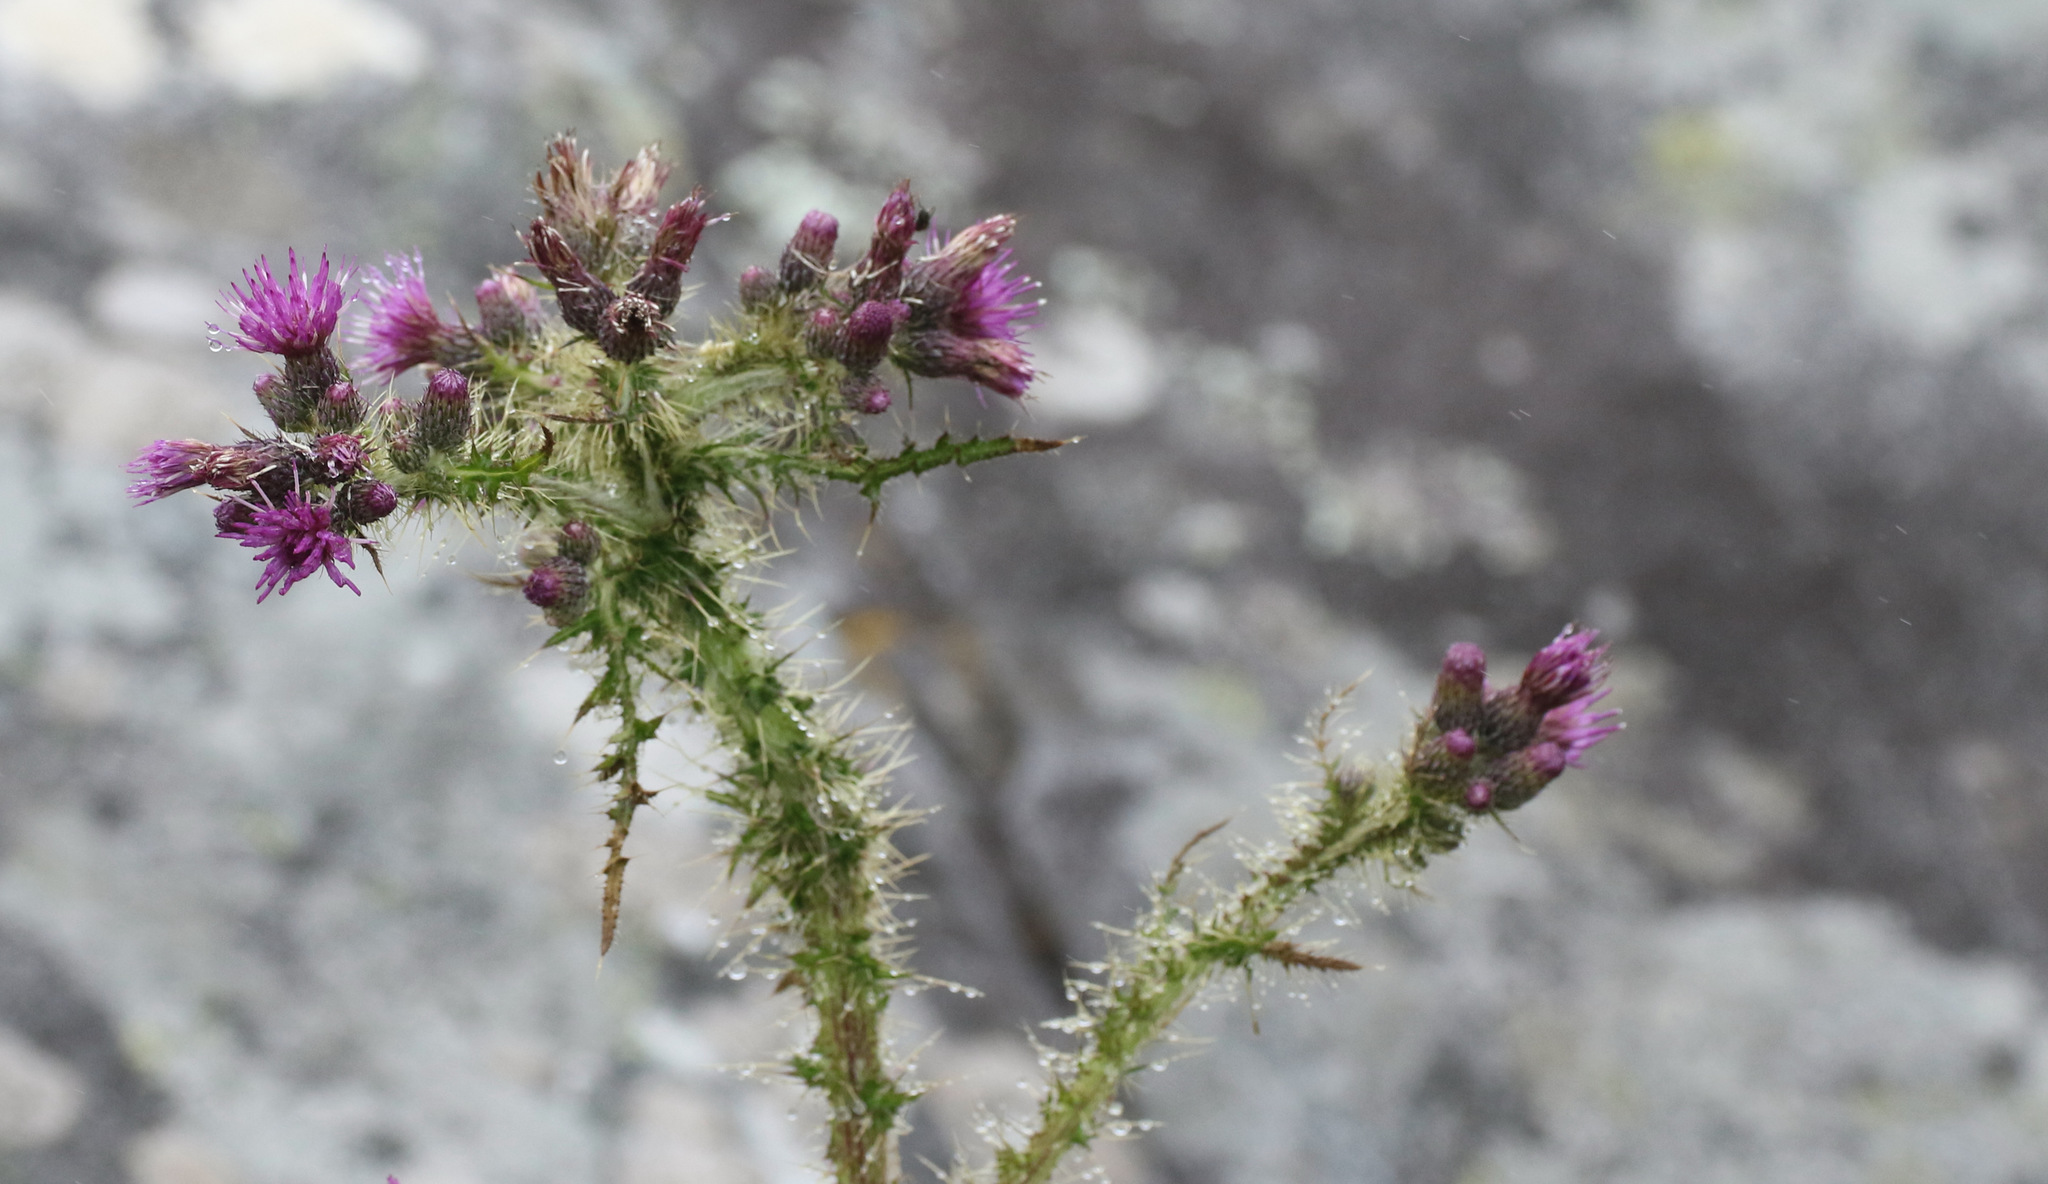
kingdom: Plantae
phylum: Tracheophyta
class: Magnoliopsida
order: Asterales
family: Asteraceae
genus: Cirsium
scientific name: Cirsium palustre
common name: Marsh thistle
